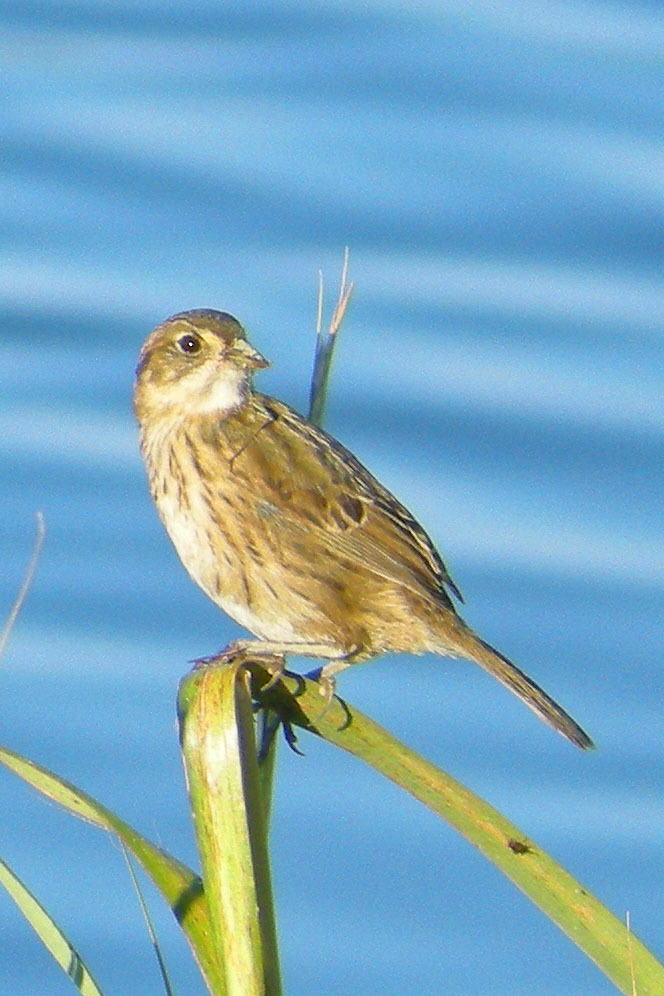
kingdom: Animalia
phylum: Chordata
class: Aves
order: Passeriformes
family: Passerellidae
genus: Ammospiza
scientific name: Ammospiza maritima
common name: Seaside sparrow
